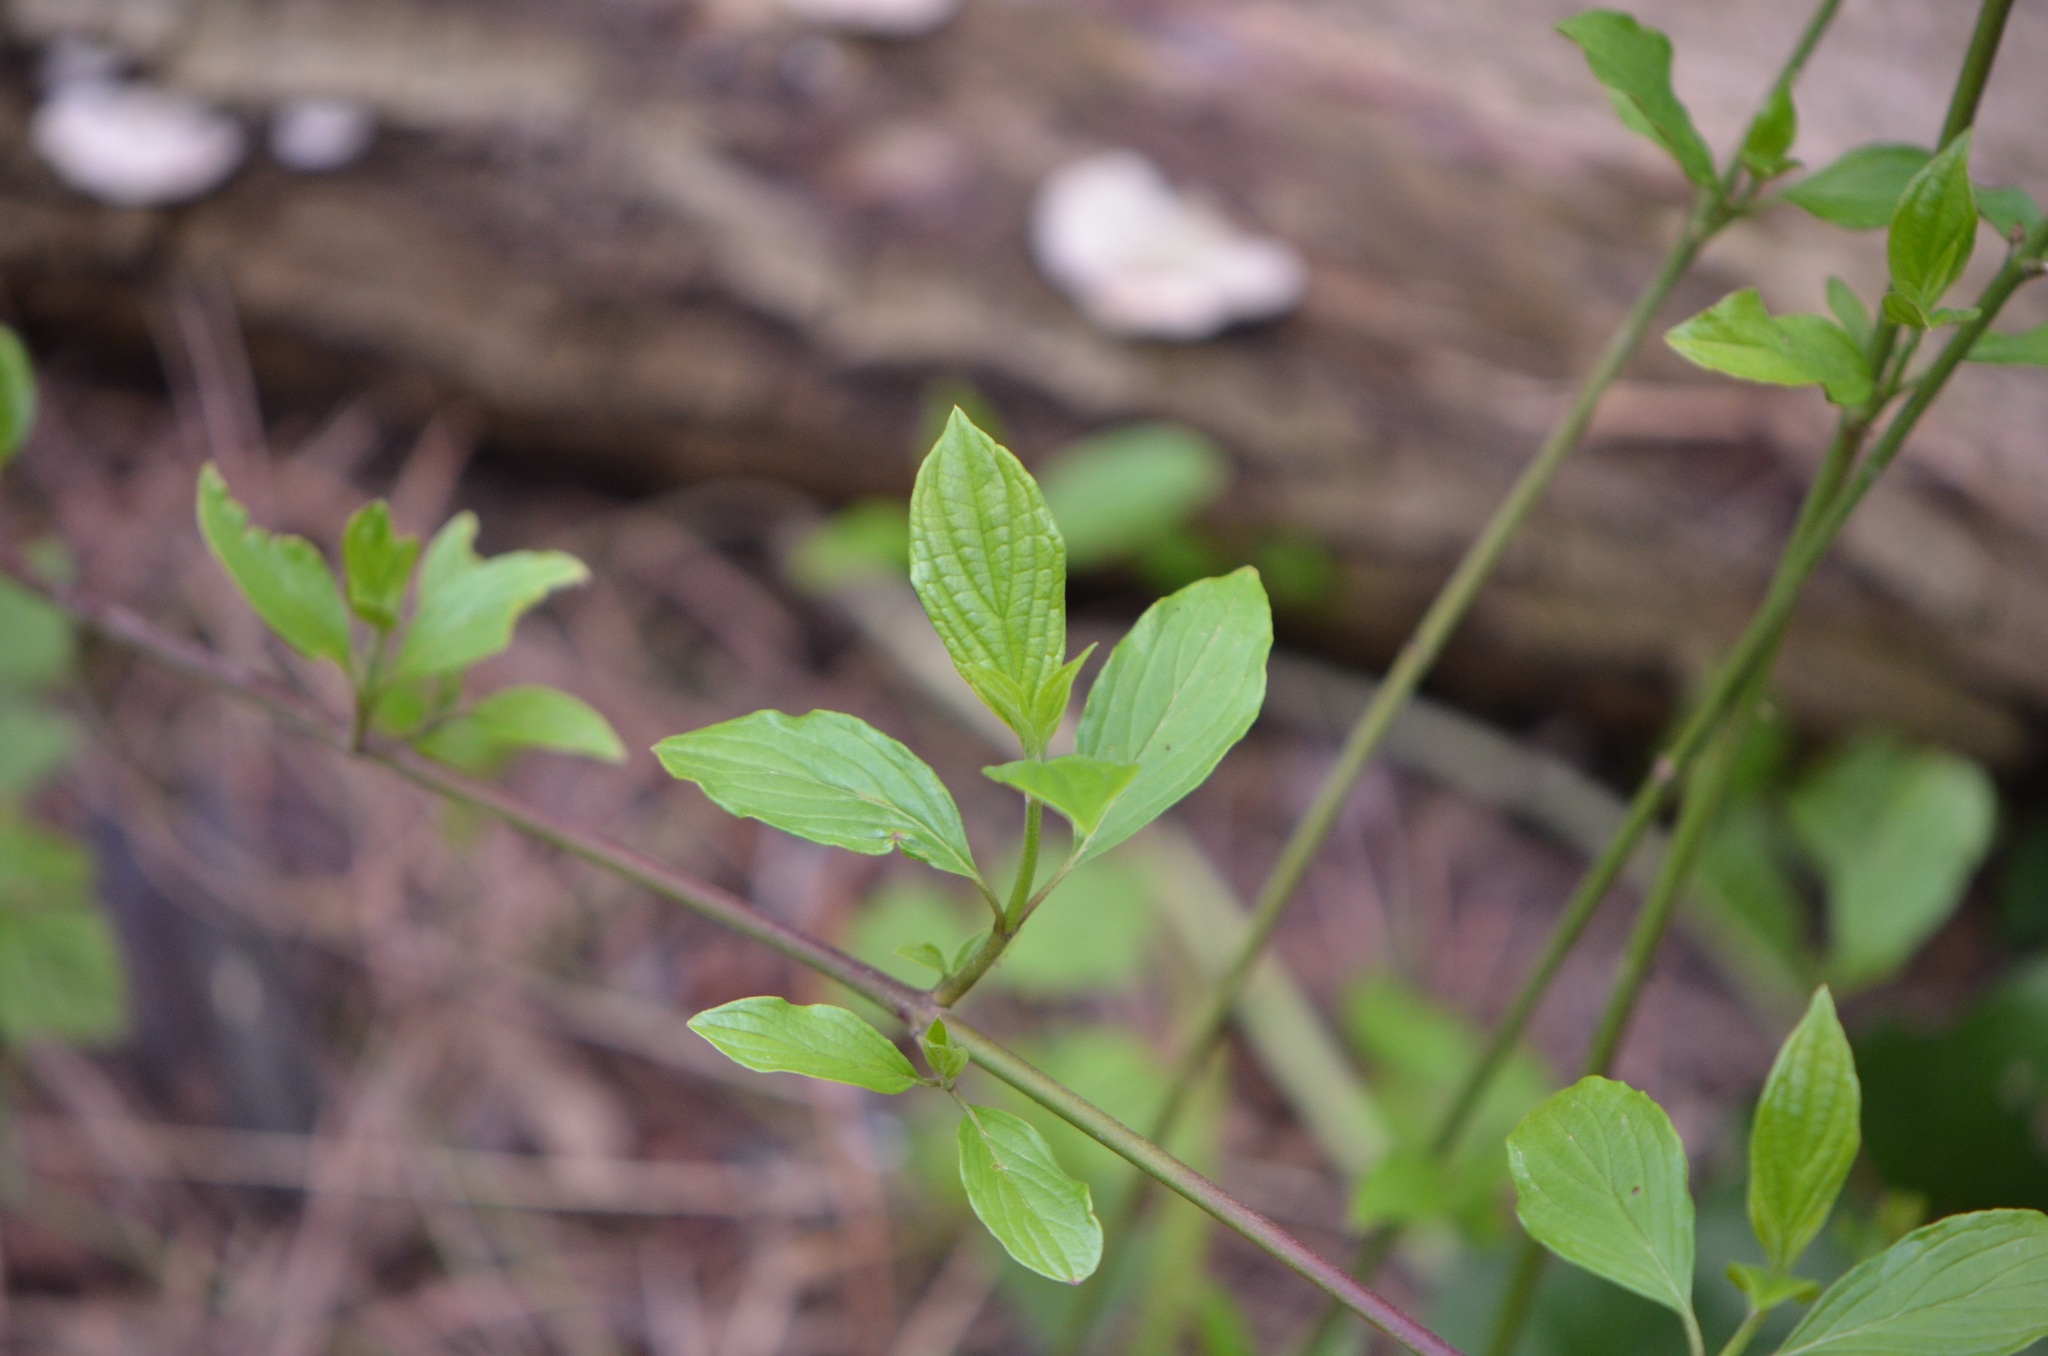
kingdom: Plantae
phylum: Tracheophyta
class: Magnoliopsida
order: Cornales
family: Cornaceae
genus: Cornus
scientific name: Cornus sanguinea
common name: Dogwood
